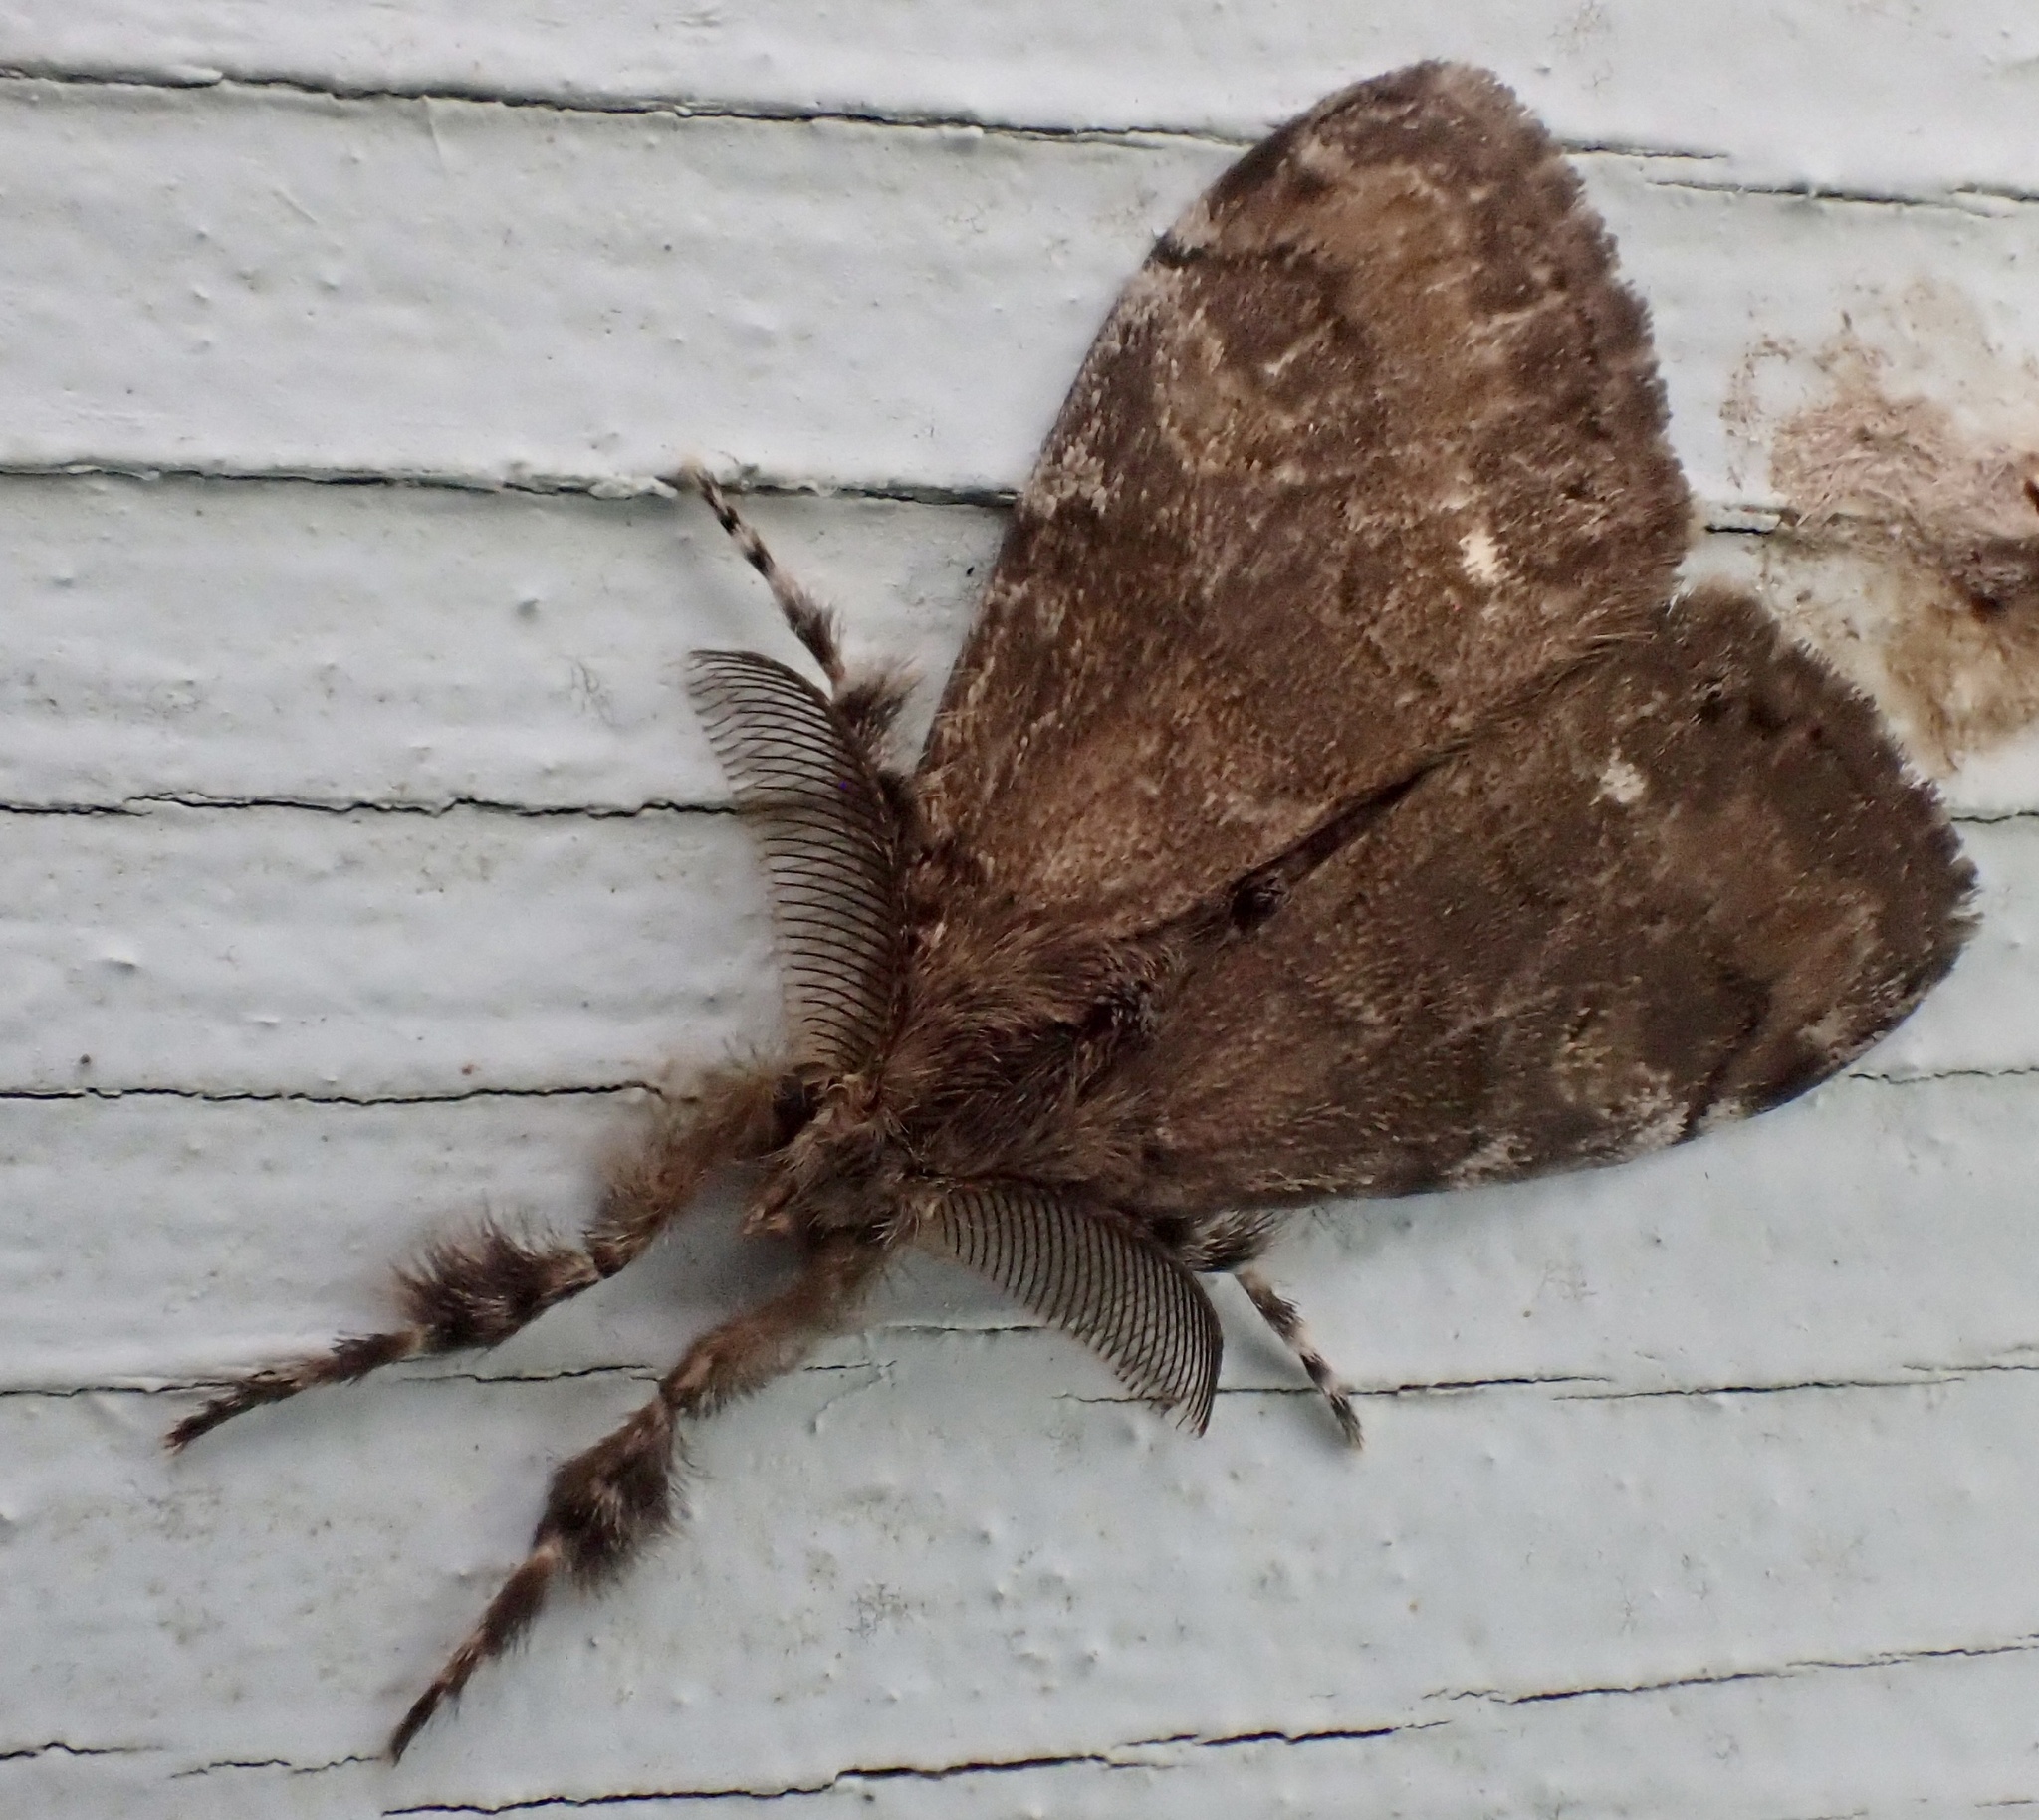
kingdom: Animalia
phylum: Arthropoda
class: Insecta
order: Lepidoptera
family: Erebidae
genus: Orgyia
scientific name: Orgyia leucostigma
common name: White-marked tussock moth
